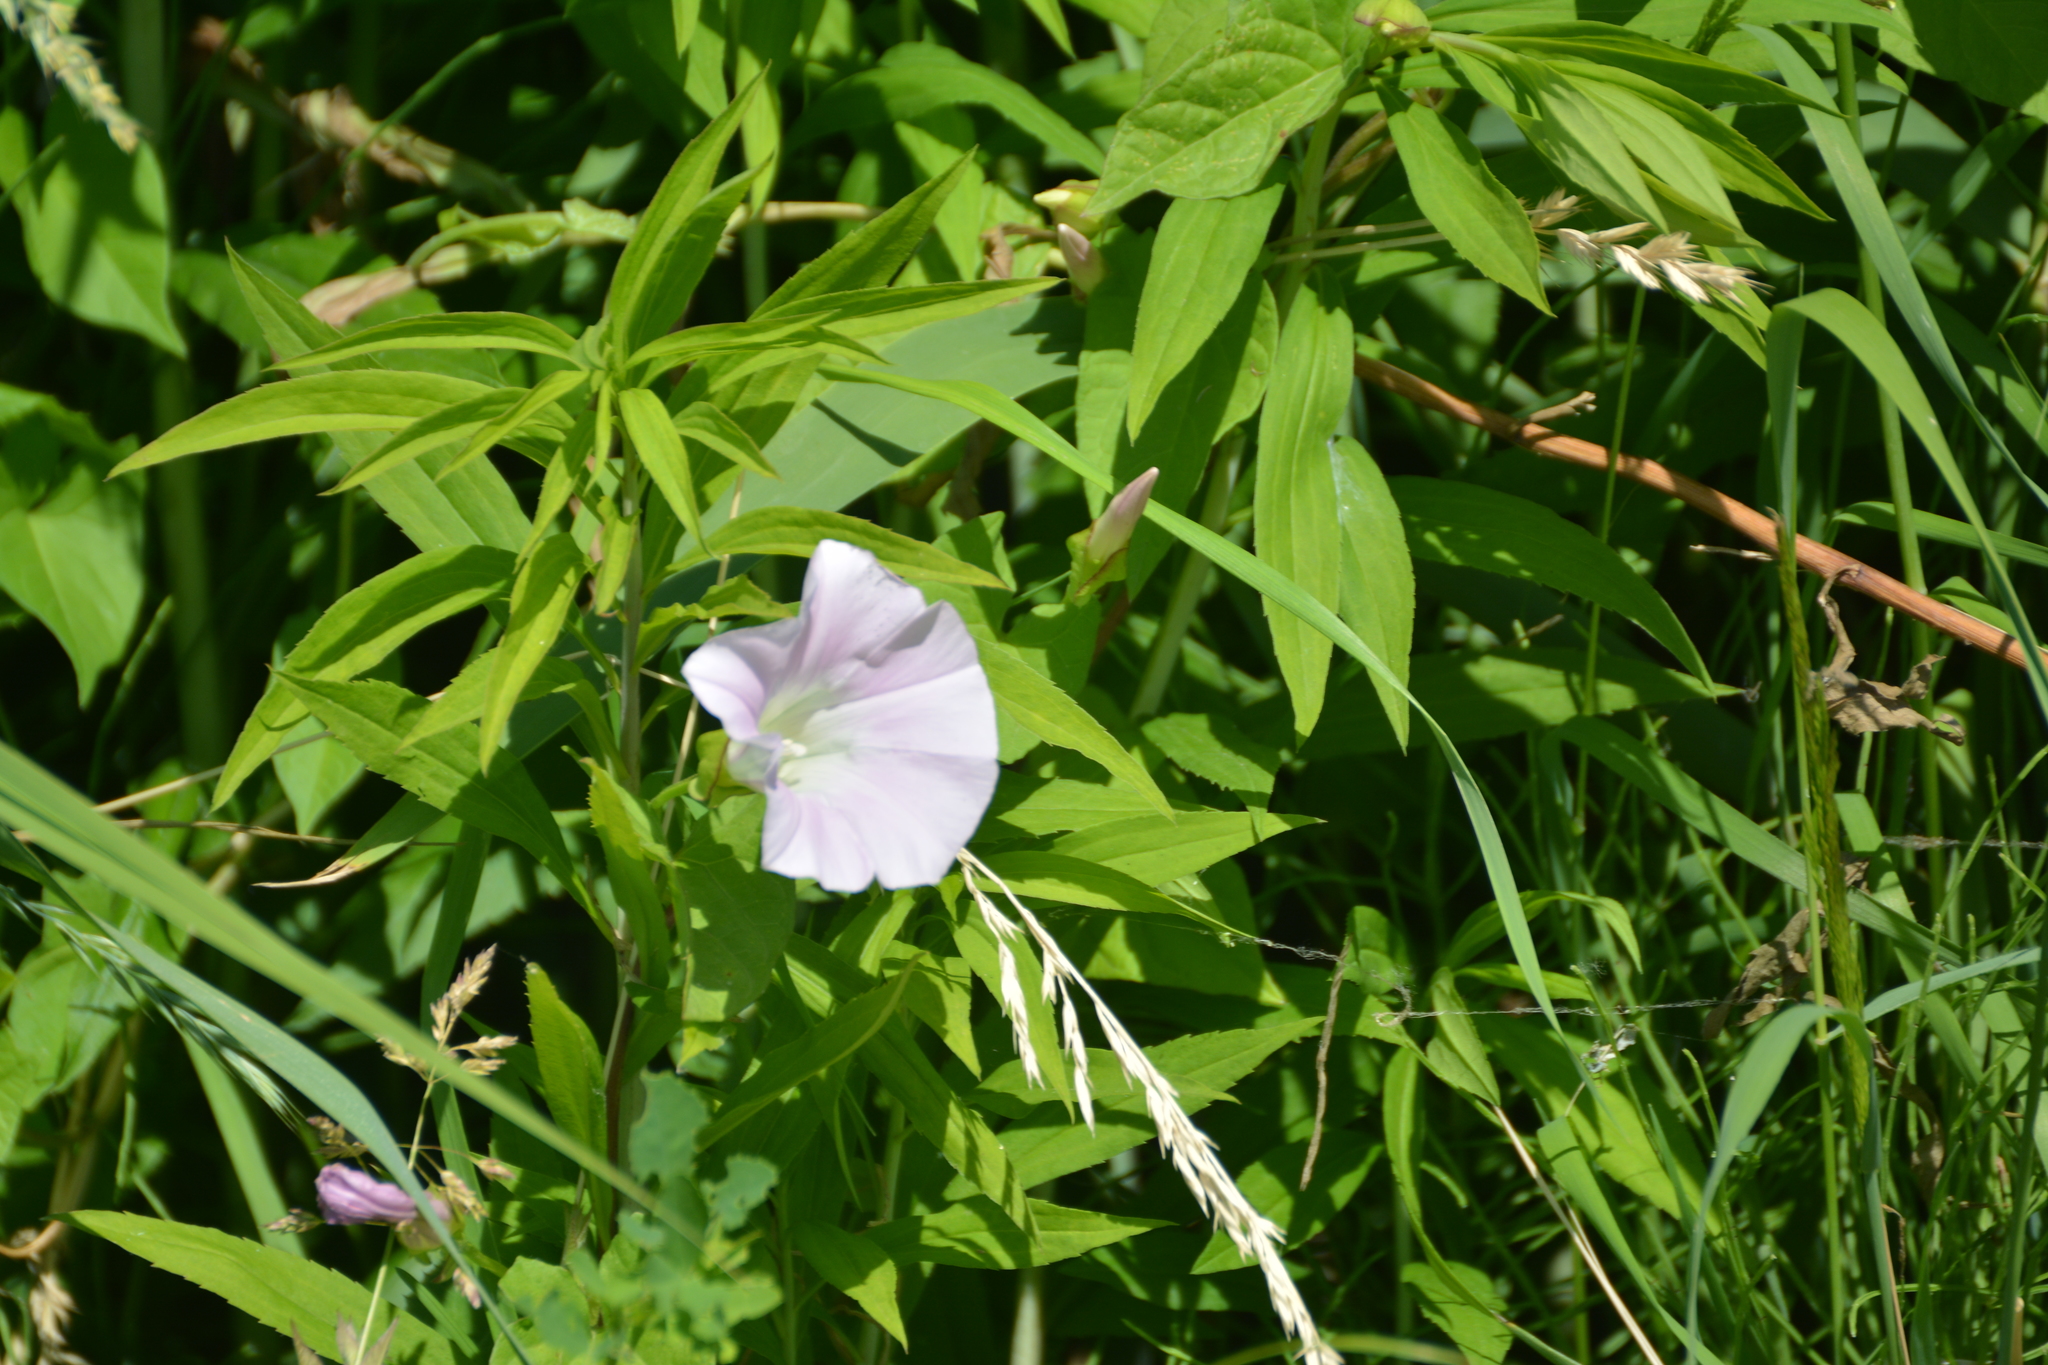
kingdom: Plantae
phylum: Tracheophyta
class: Magnoliopsida
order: Solanales
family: Convolvulaceae
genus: Calystegia
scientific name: Calystegia sepium
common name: Hedge bindweed
